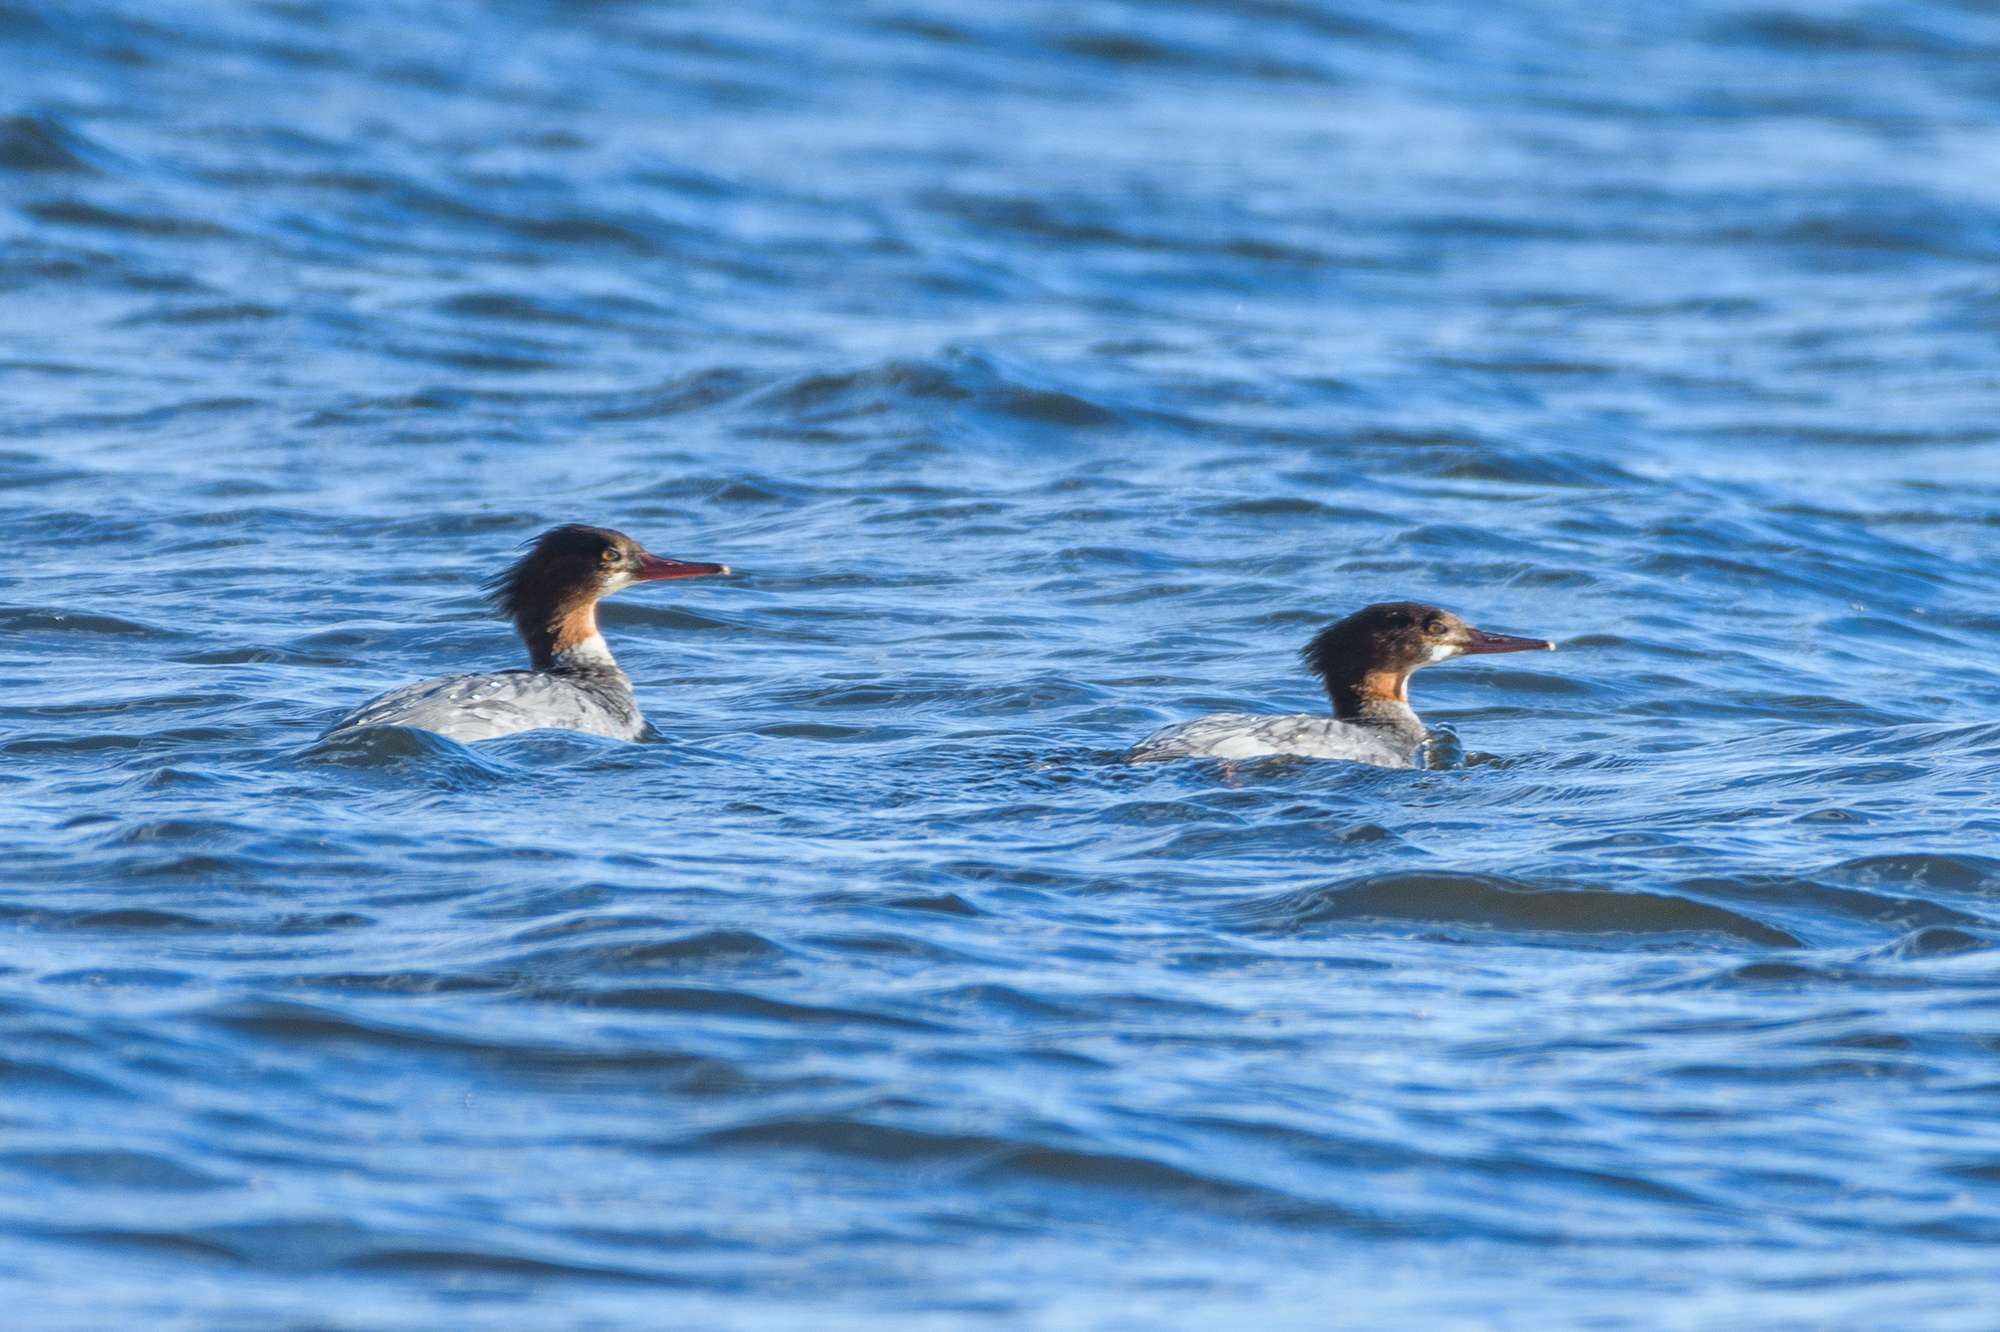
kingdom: Animalia
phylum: Chordata
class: Aves
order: Anseriformes
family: Anatidae
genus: Mergus
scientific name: Mergus merganser
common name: Common merganser
